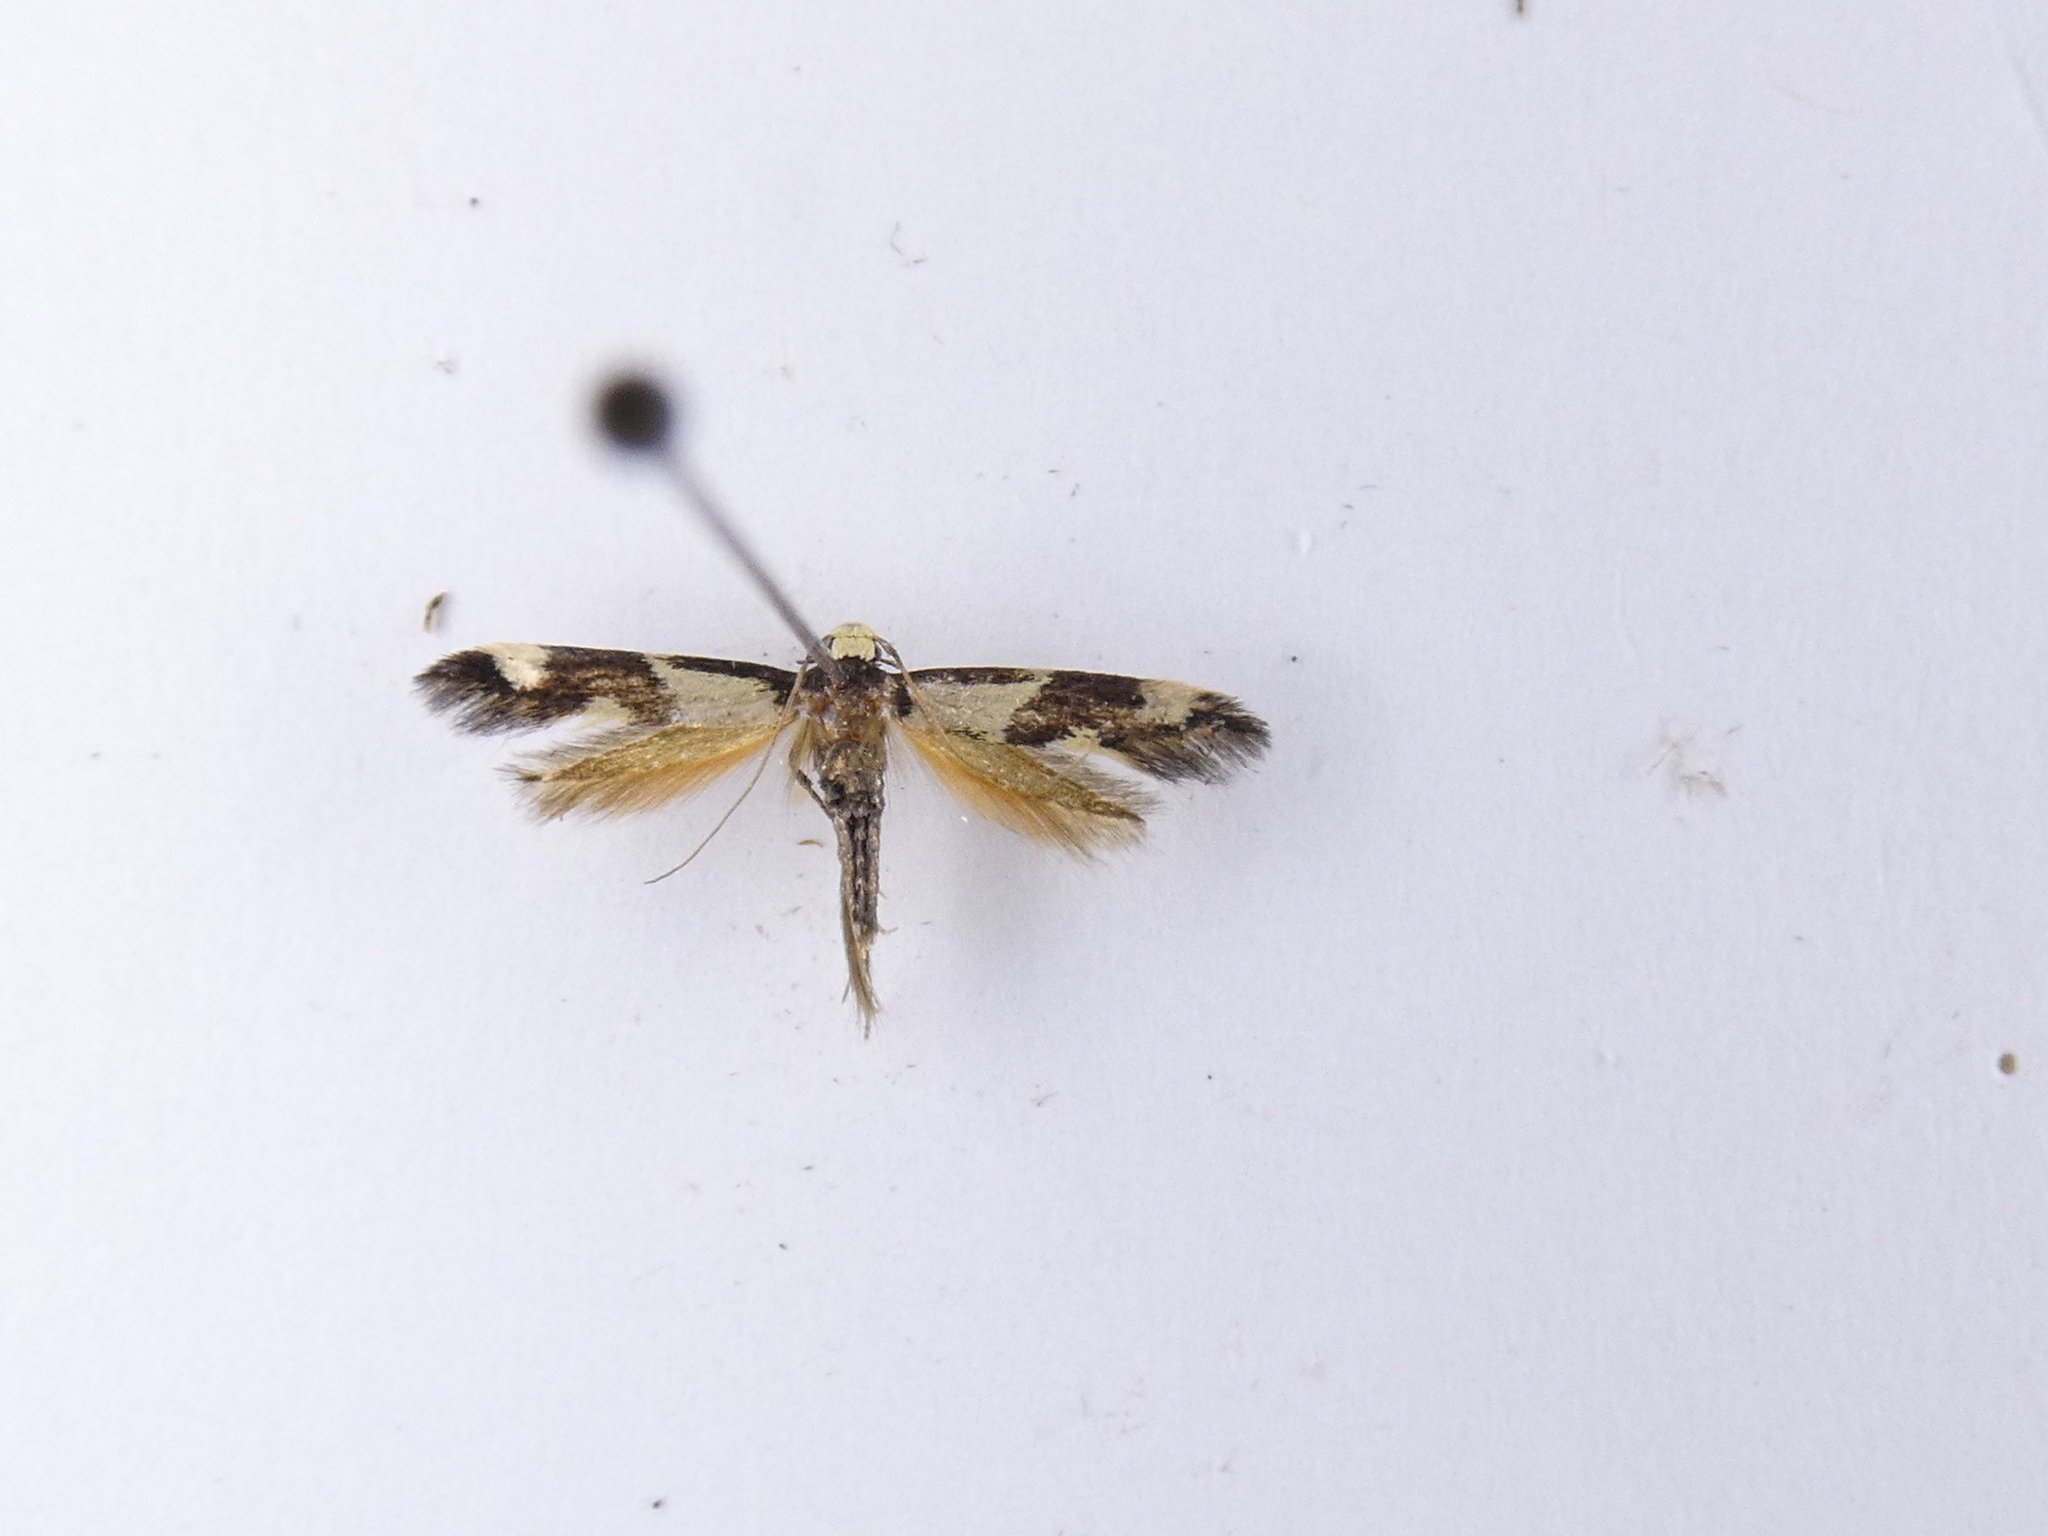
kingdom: Animalia
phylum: Arthropoda
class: Insecta
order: Lepidoptera
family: Tineidae
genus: Opogona
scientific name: Opogona comptella
